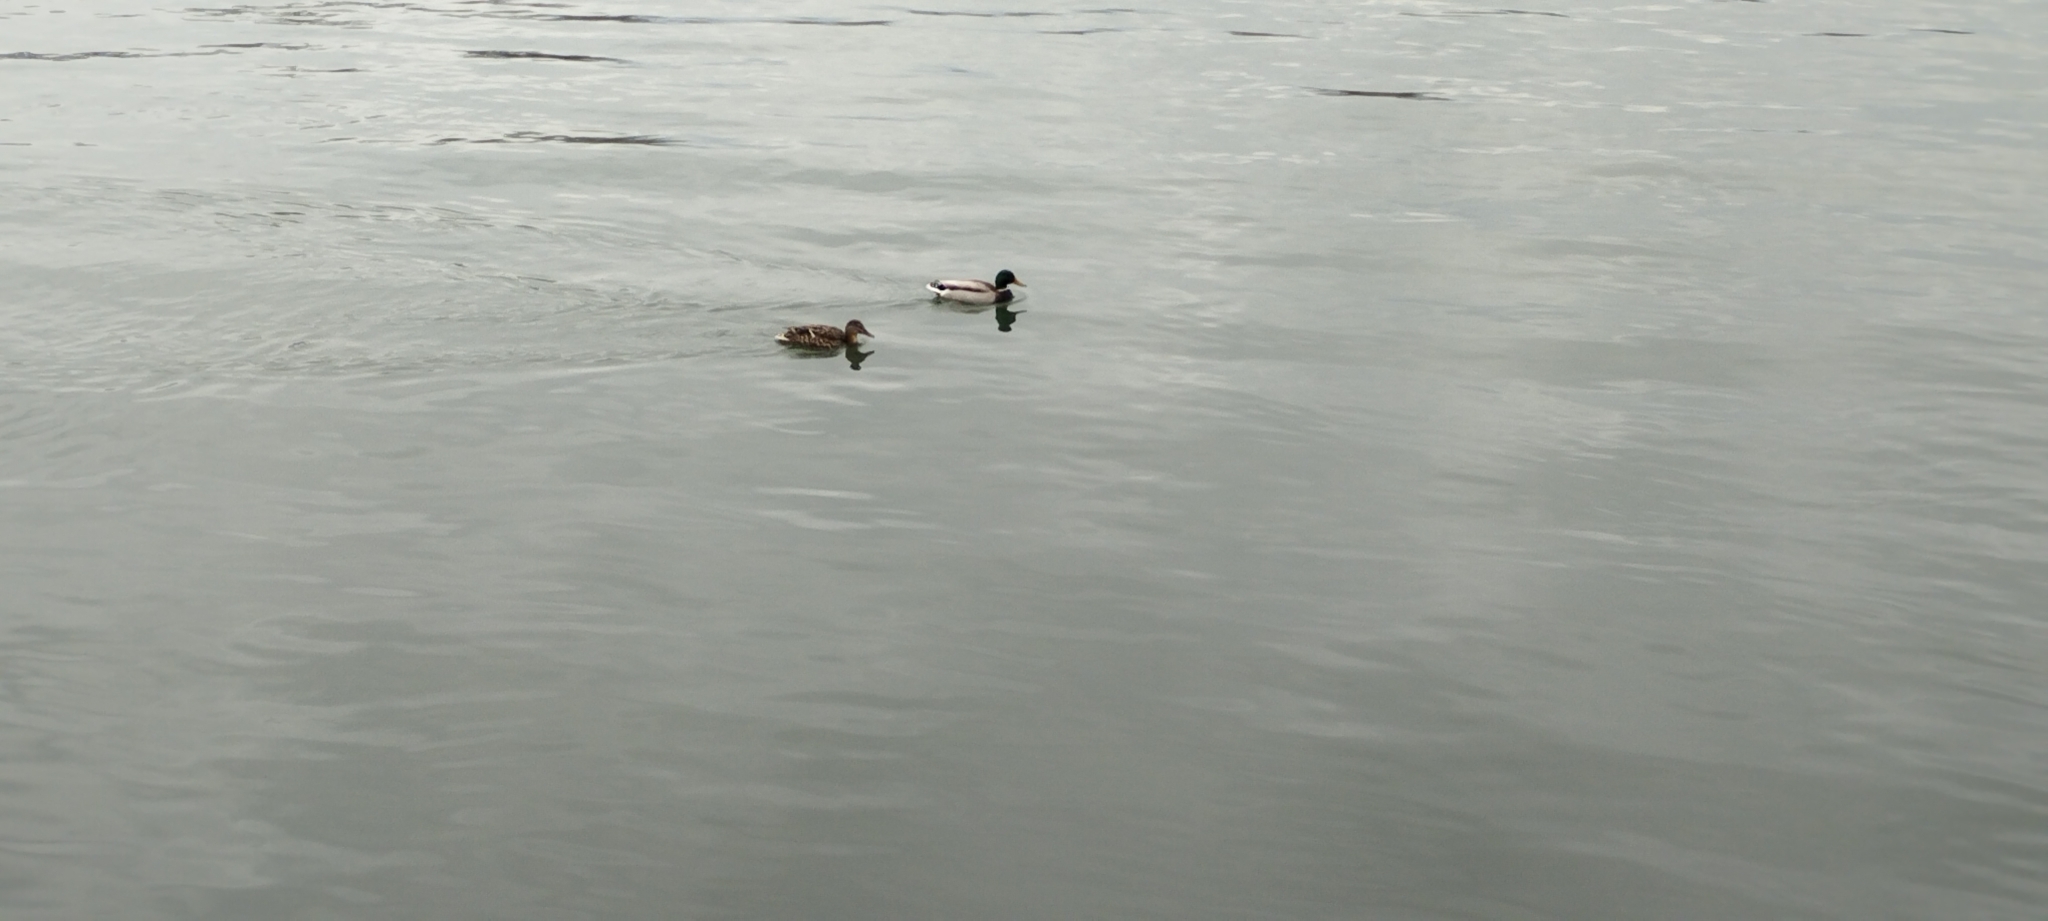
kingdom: Animalia
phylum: Chordata
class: Aves
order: Anseriformes
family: Anatidae
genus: Anas
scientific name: Anas platyrhynchos
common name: Mallard
